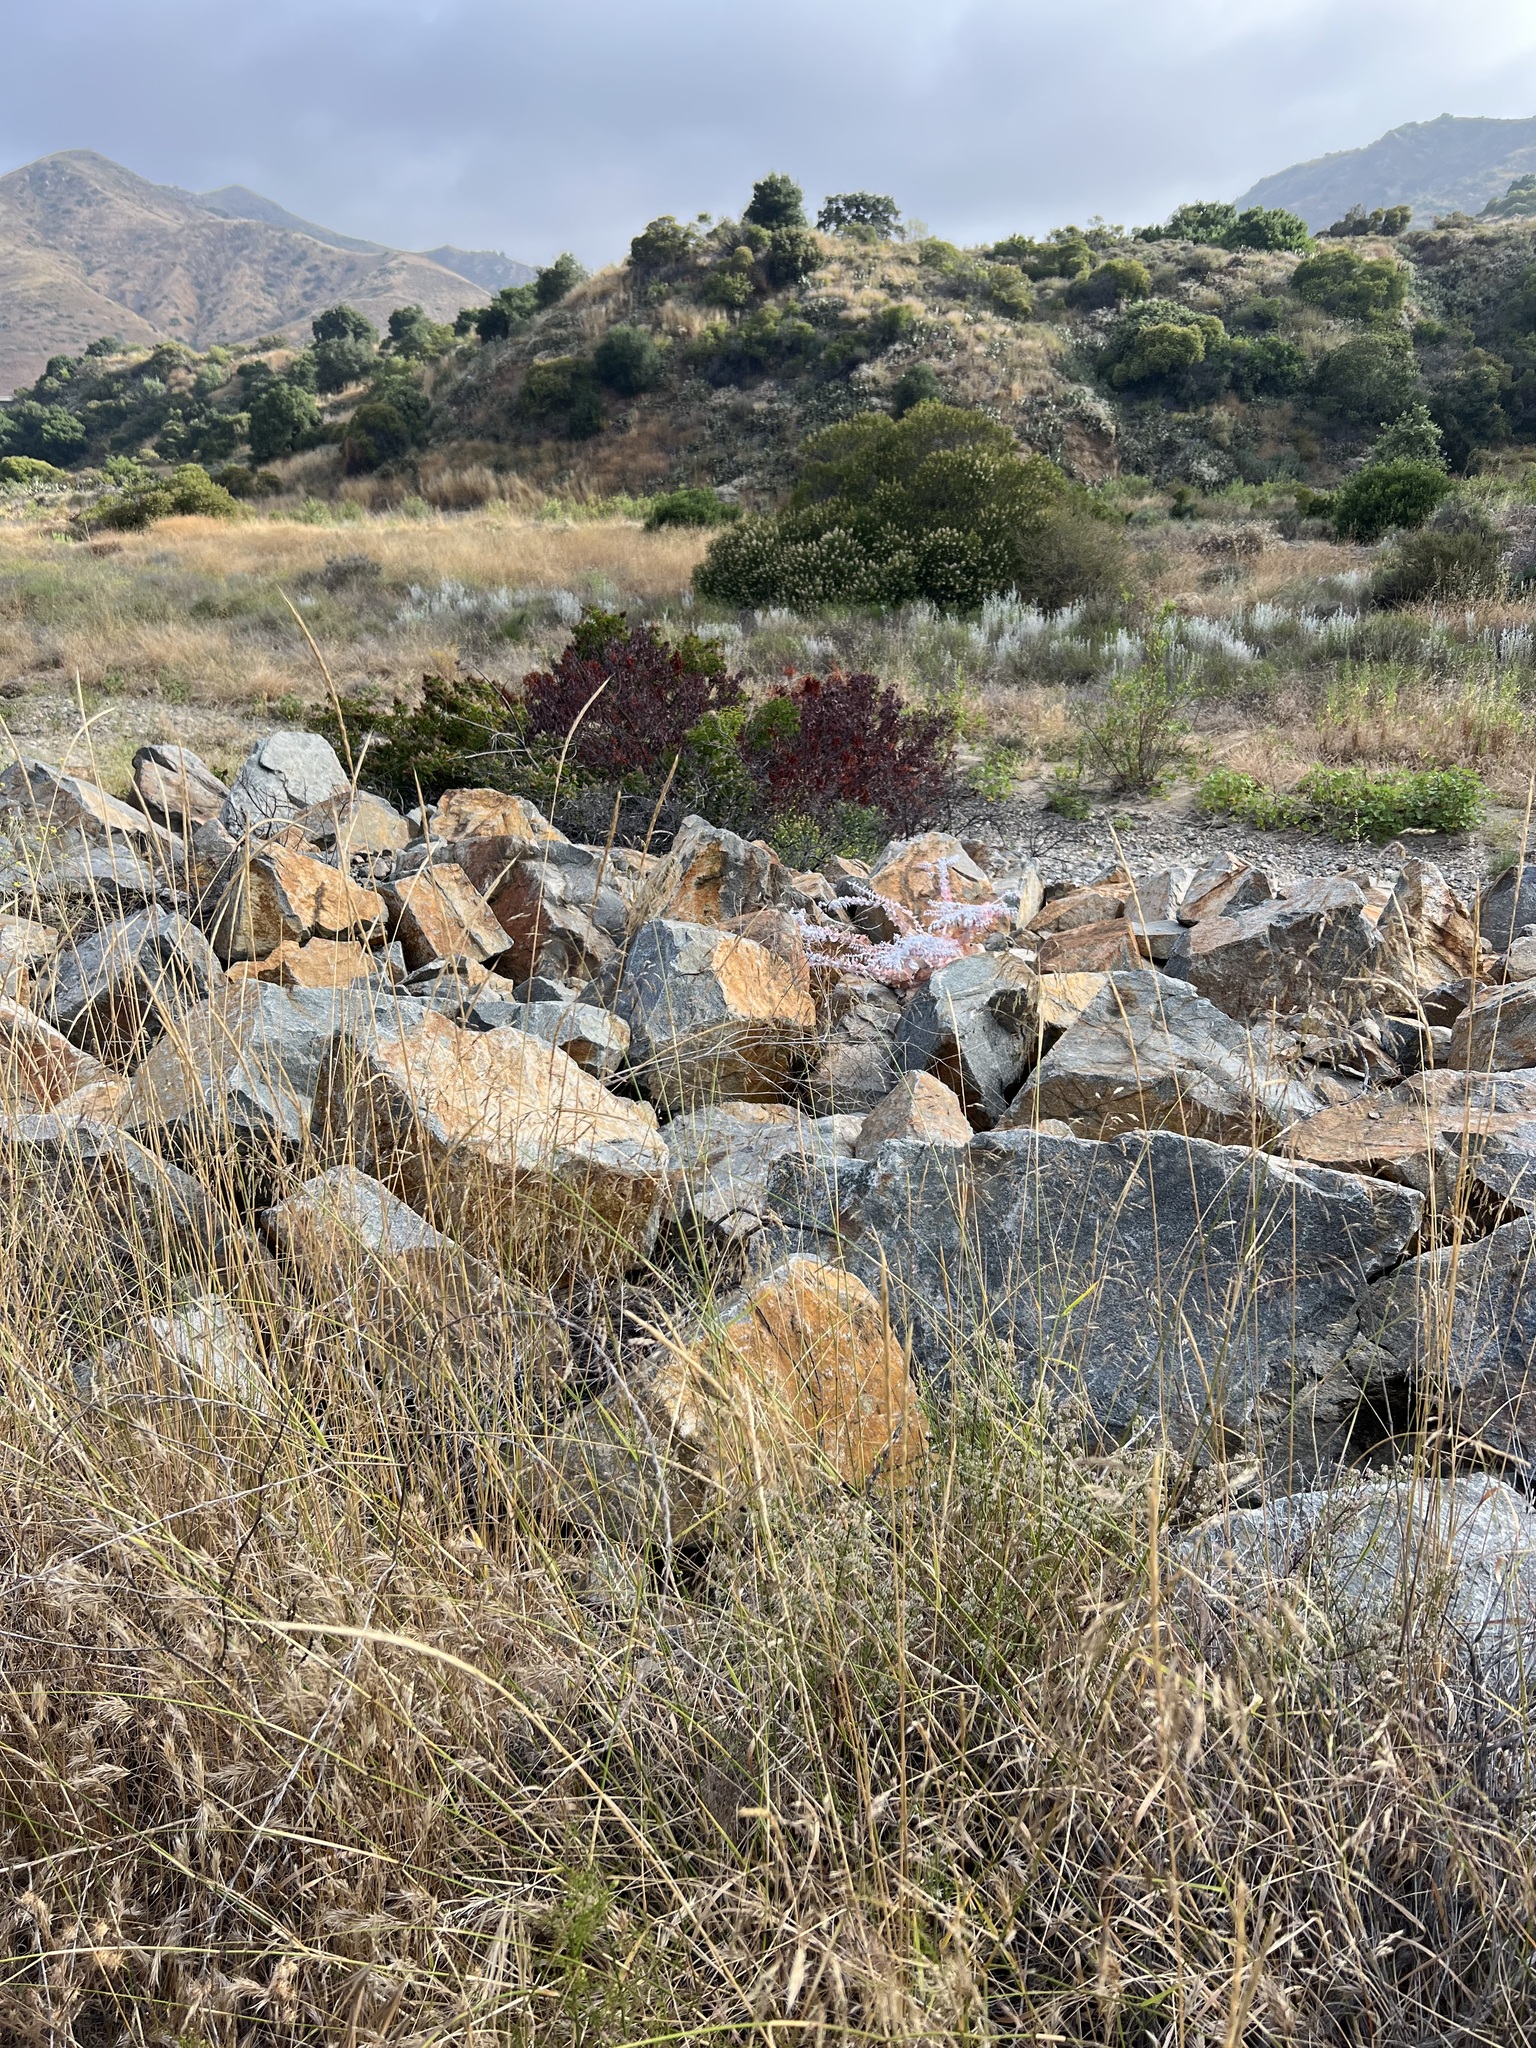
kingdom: Plantae
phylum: Tracheophyta
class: Magnoliopsida
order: Saxifragales
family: Crassulaceae
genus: Dudleya
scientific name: Dudleya pulverulenta
